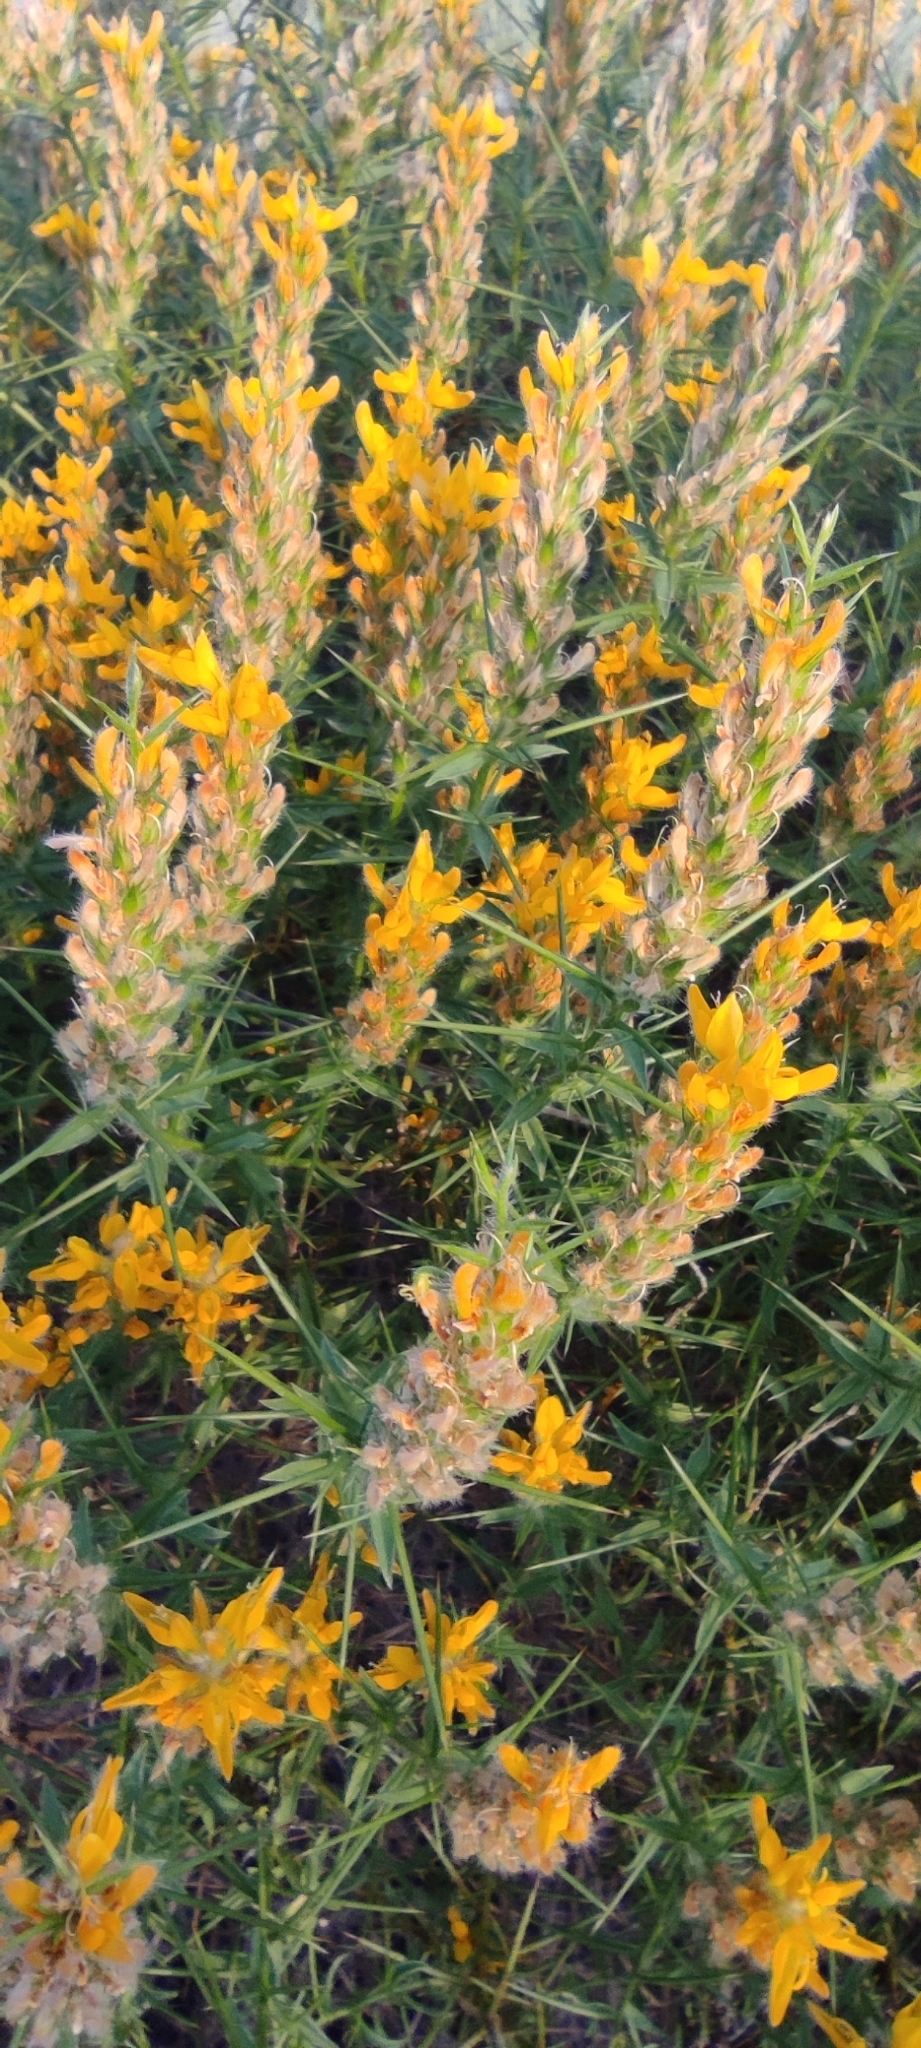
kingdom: Plantae
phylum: Tracheophyta
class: Magnoliopsida
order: Fabales
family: Fabaceae
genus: Genista
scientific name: Genista hirsuta
